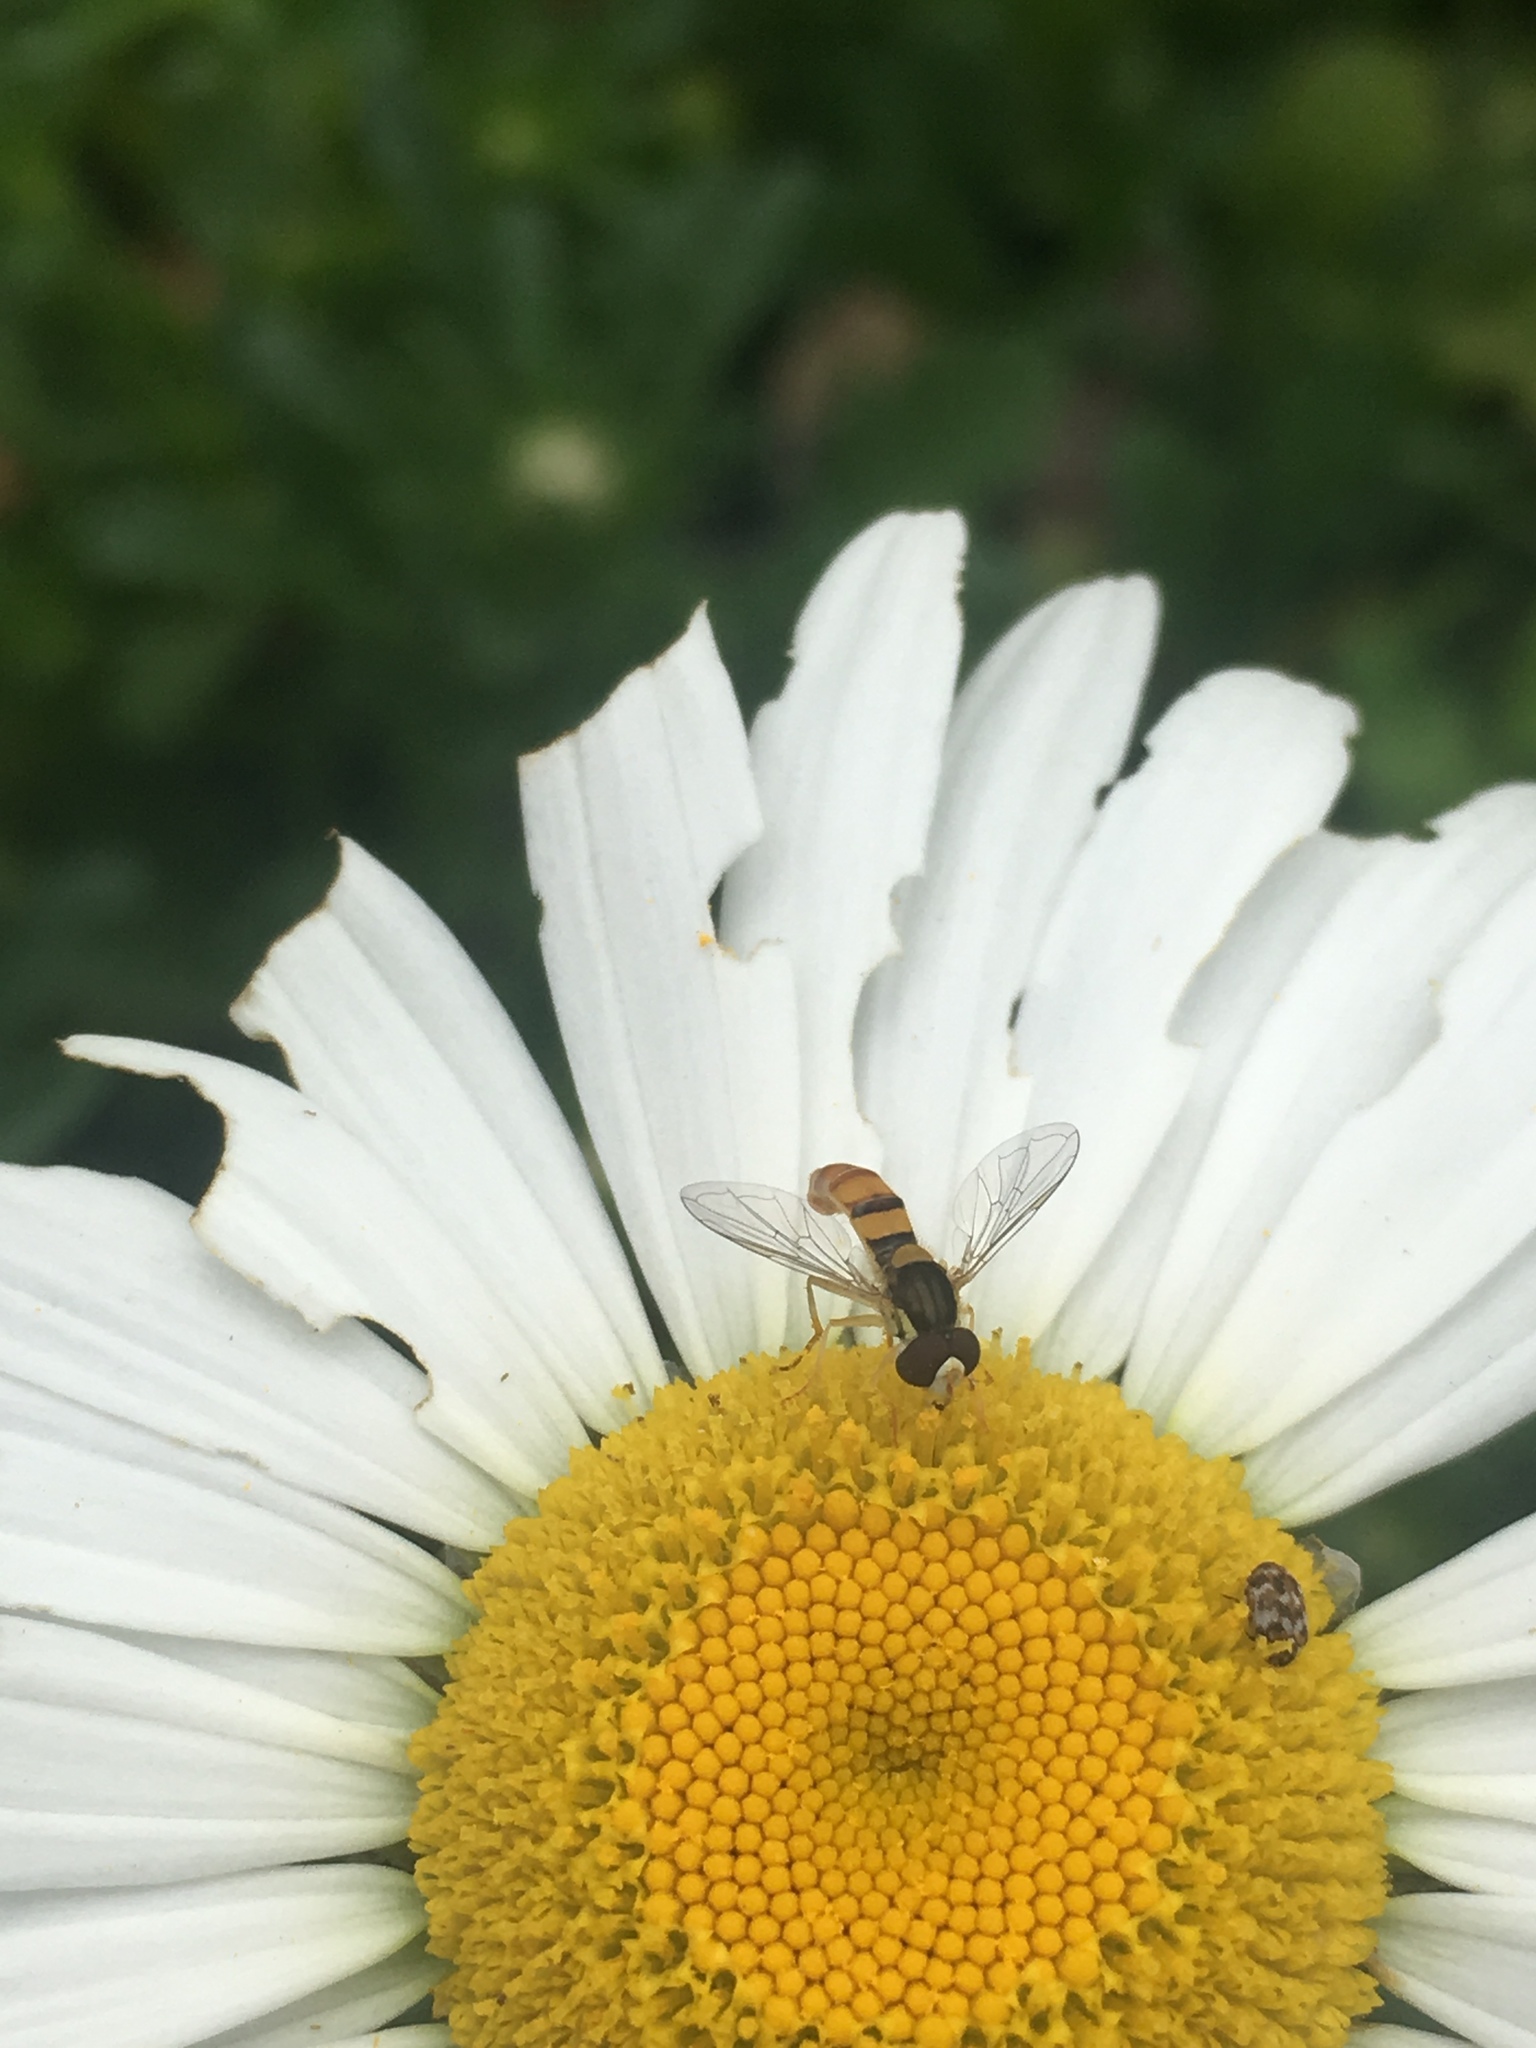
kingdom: Animalia
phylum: Arthropoda
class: Insecta
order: Diptera
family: Syrphidae
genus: Sphaerophoria
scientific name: Sphaerophoria contigua
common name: Tufted globetail
